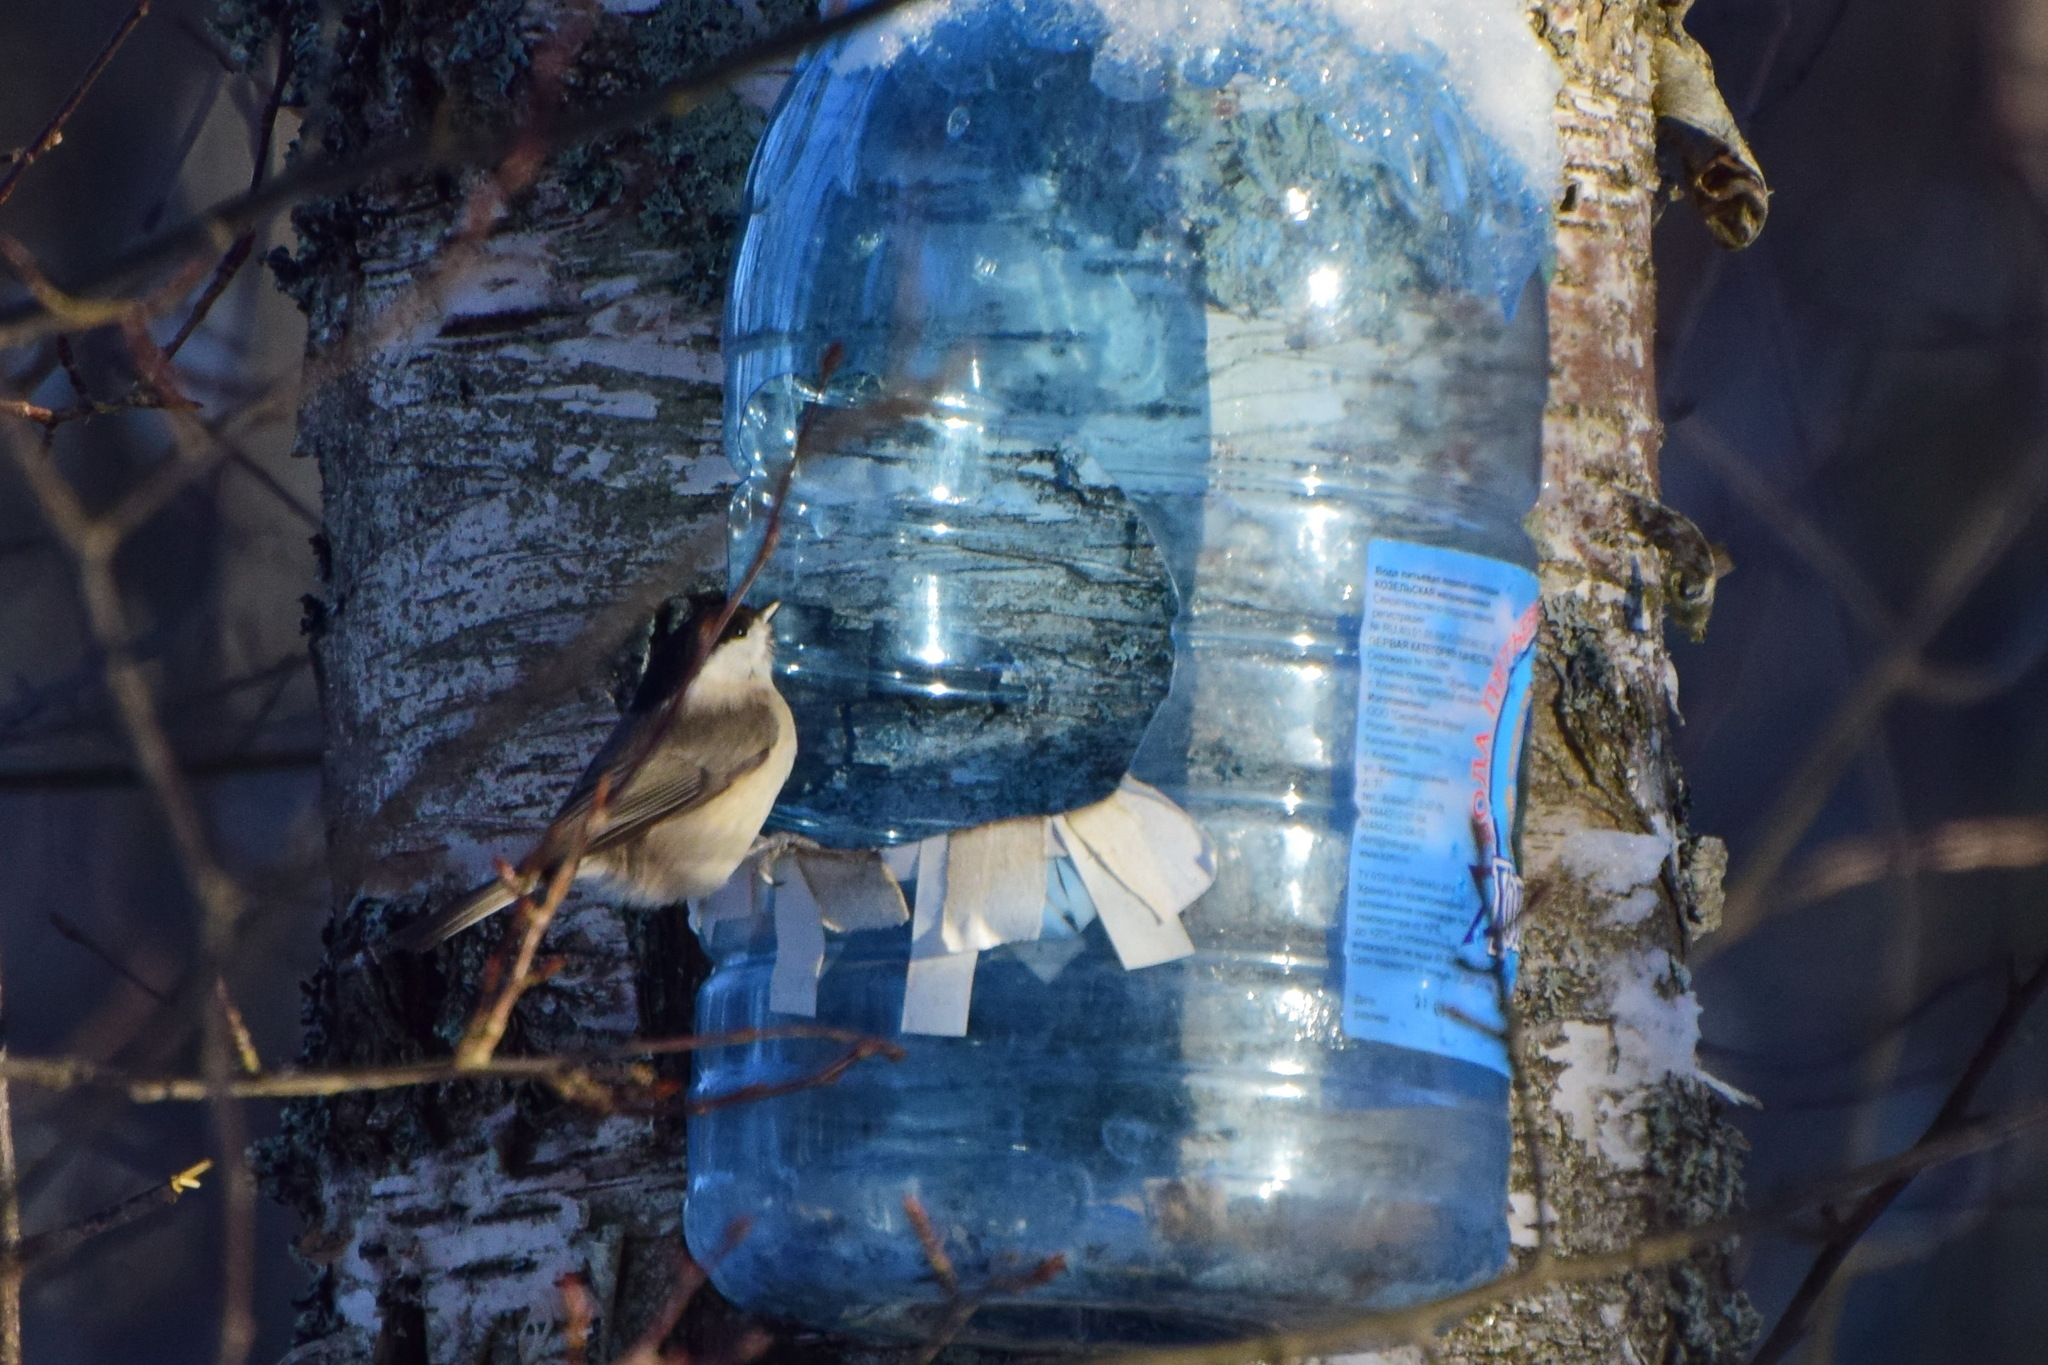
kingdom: Animalia
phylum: Chordata
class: Aves
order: Passeriformes
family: Paridae
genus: Poecile
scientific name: Poecile palustris
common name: Marsh tit
